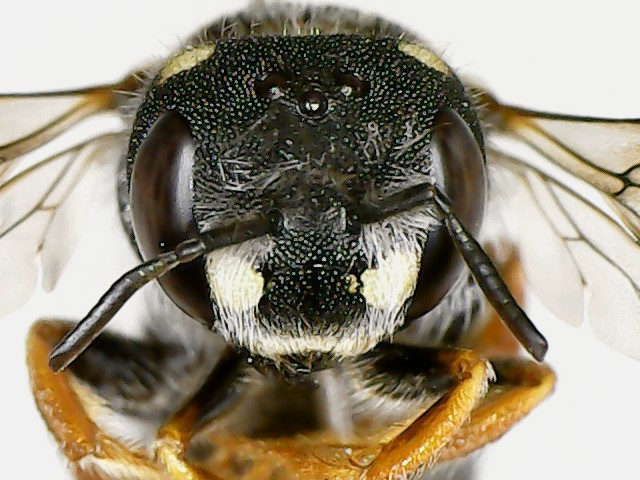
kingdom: Animalia
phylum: Arthropoda
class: Insecta
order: Hymenoptera
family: Megachilidae
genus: Pseudoanthidium
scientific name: Pseudoanthidium nanum
